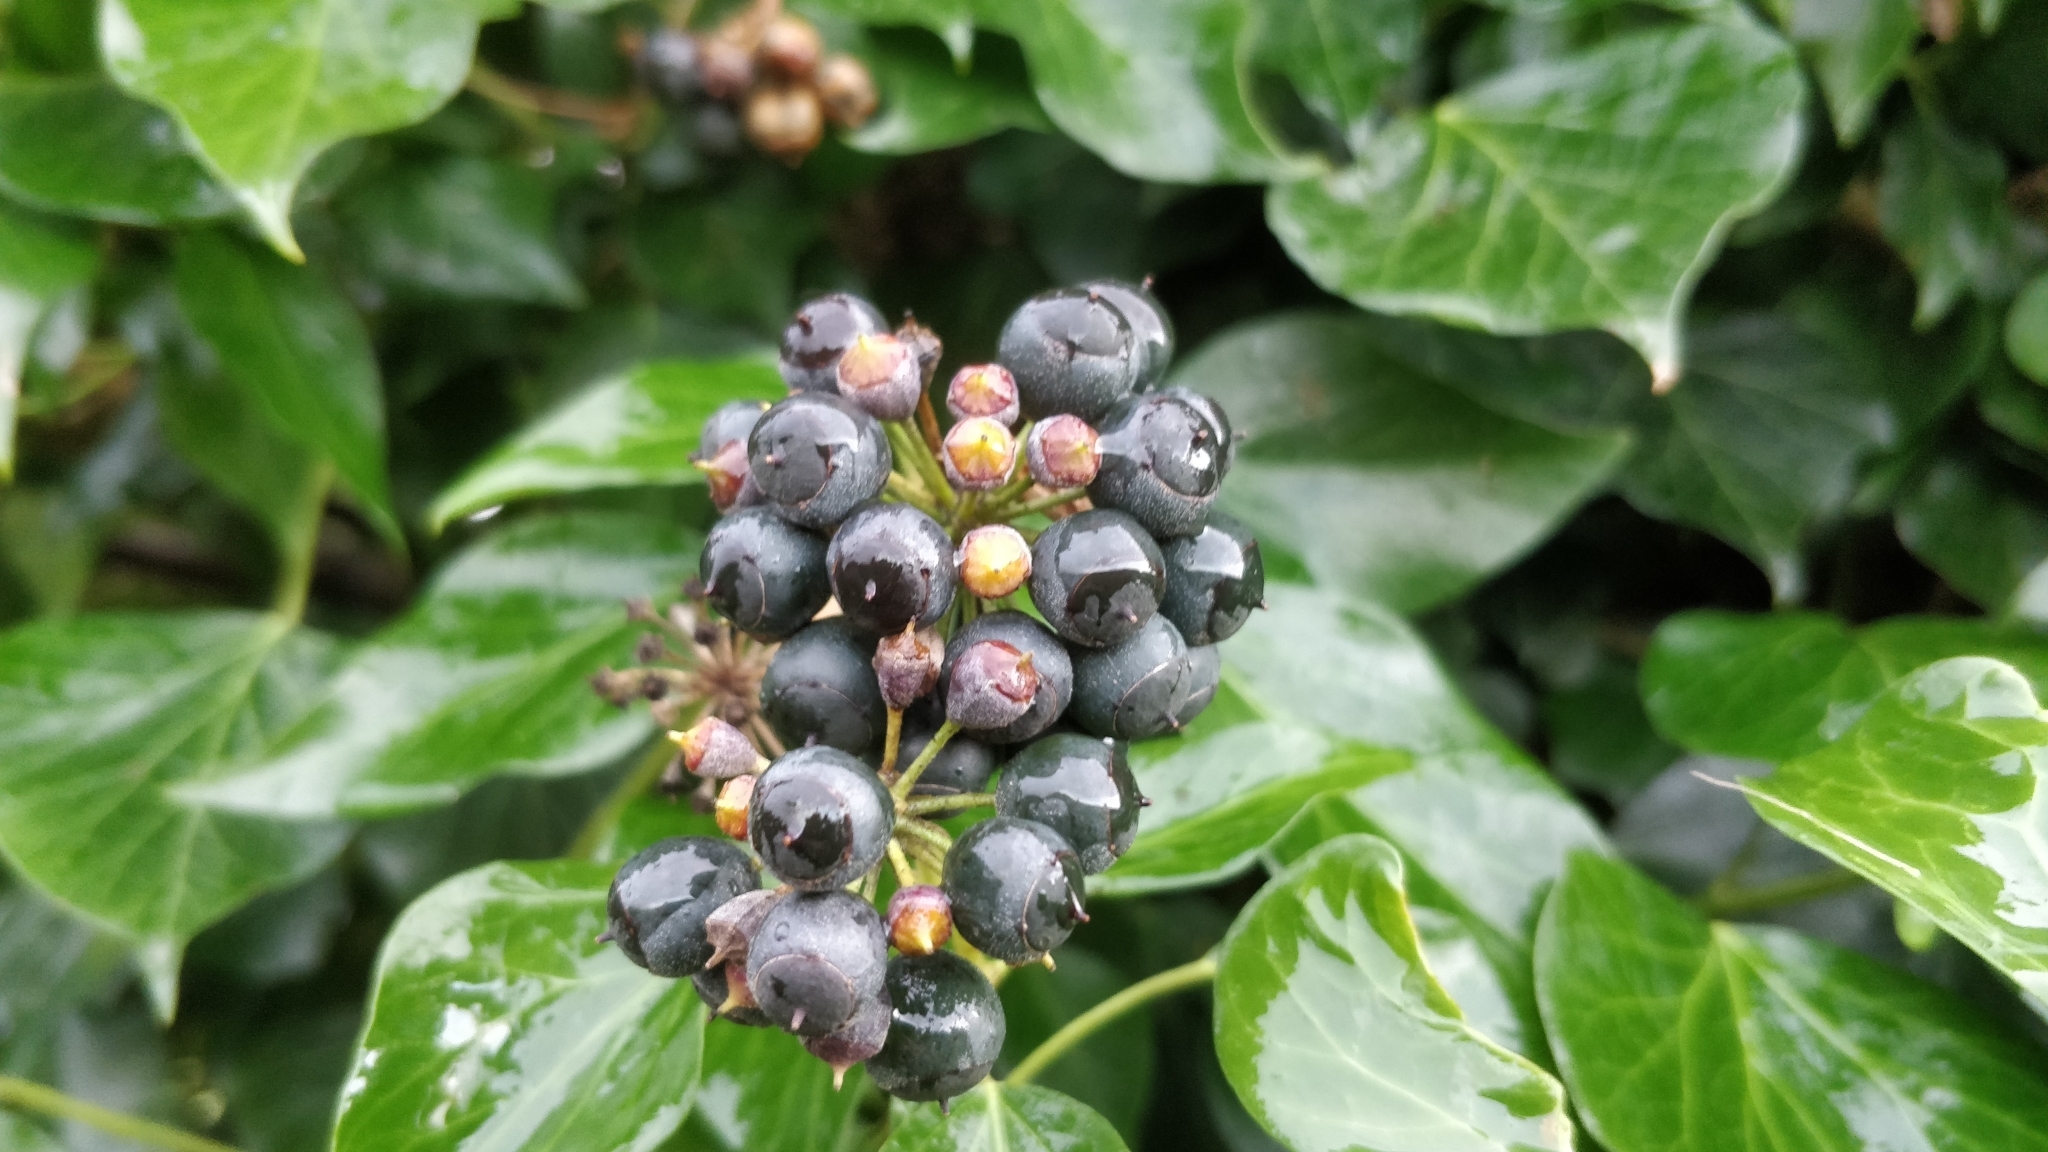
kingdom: Plantae
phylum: Tracheophyta
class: Magnoliopsida
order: Apiales
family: Araliaceae
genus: Hedera
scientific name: Hedera helix
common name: Ivy
